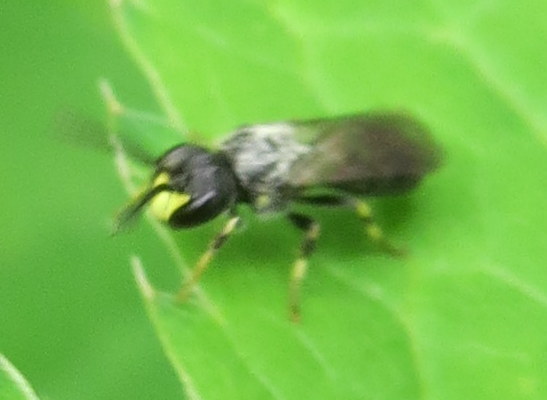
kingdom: Animalia
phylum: Arthropoda
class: Insecta
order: Hymenoptera
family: Colletidae
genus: Hylaeus
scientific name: Hylaeus
